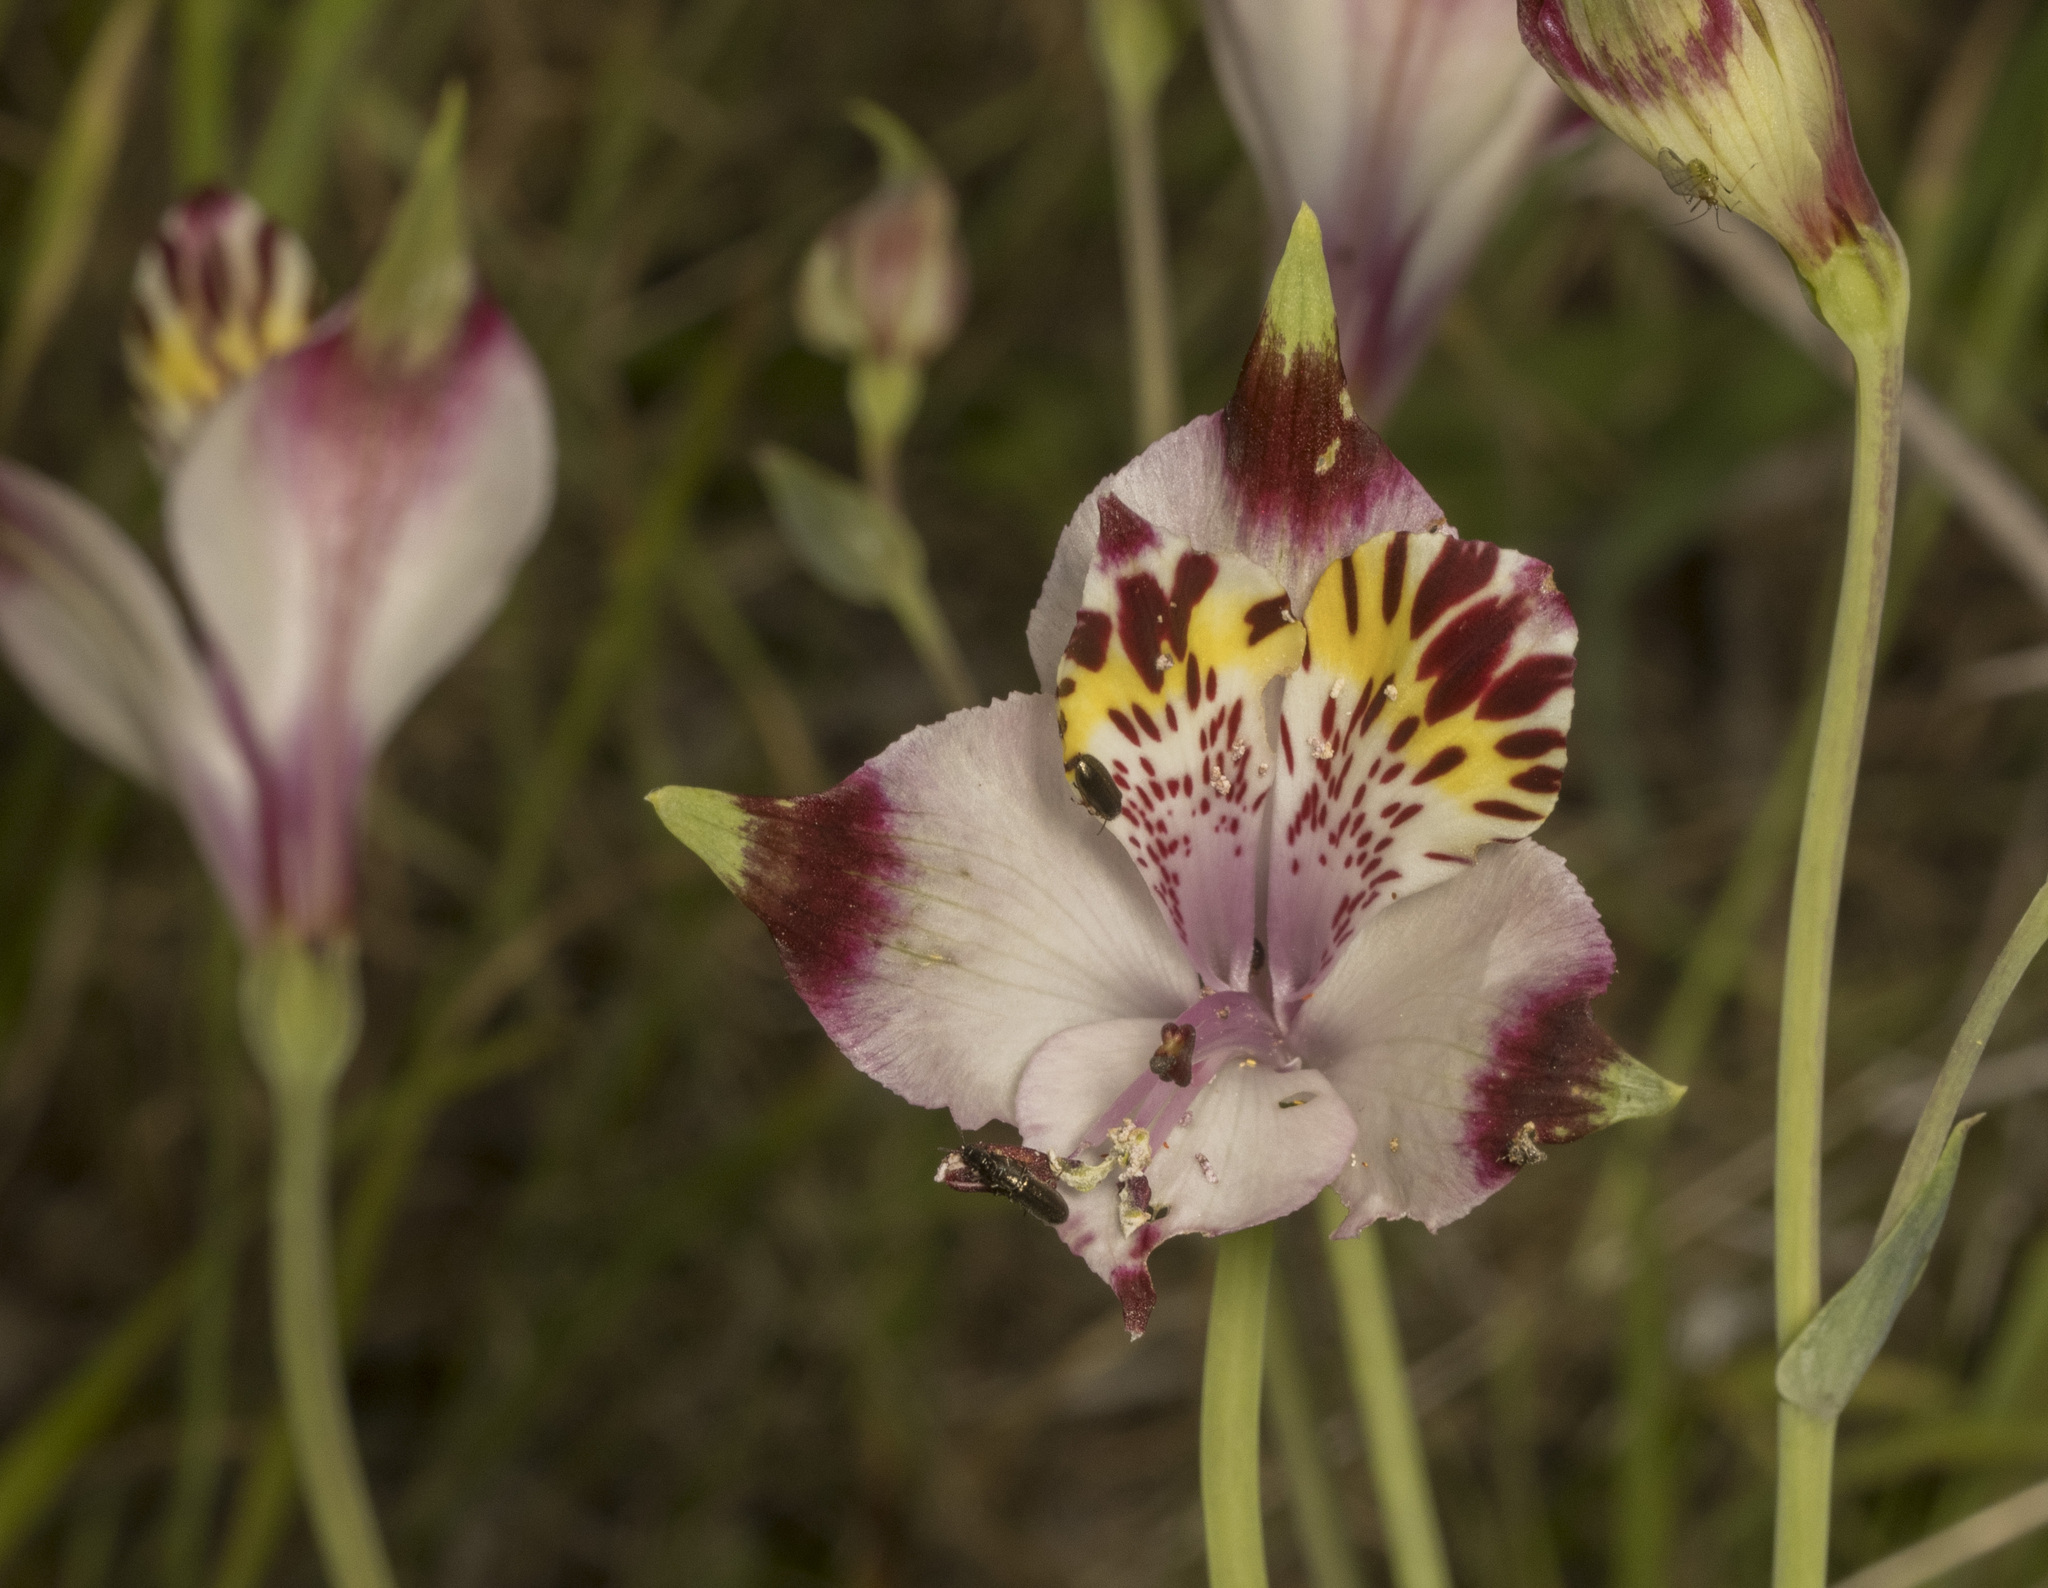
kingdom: Plantae
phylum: Tracheophyta
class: Liliopsida
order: Liliales
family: Alstroemeriaceae
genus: Alstroemeria
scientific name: Alstroemeria pulchra
